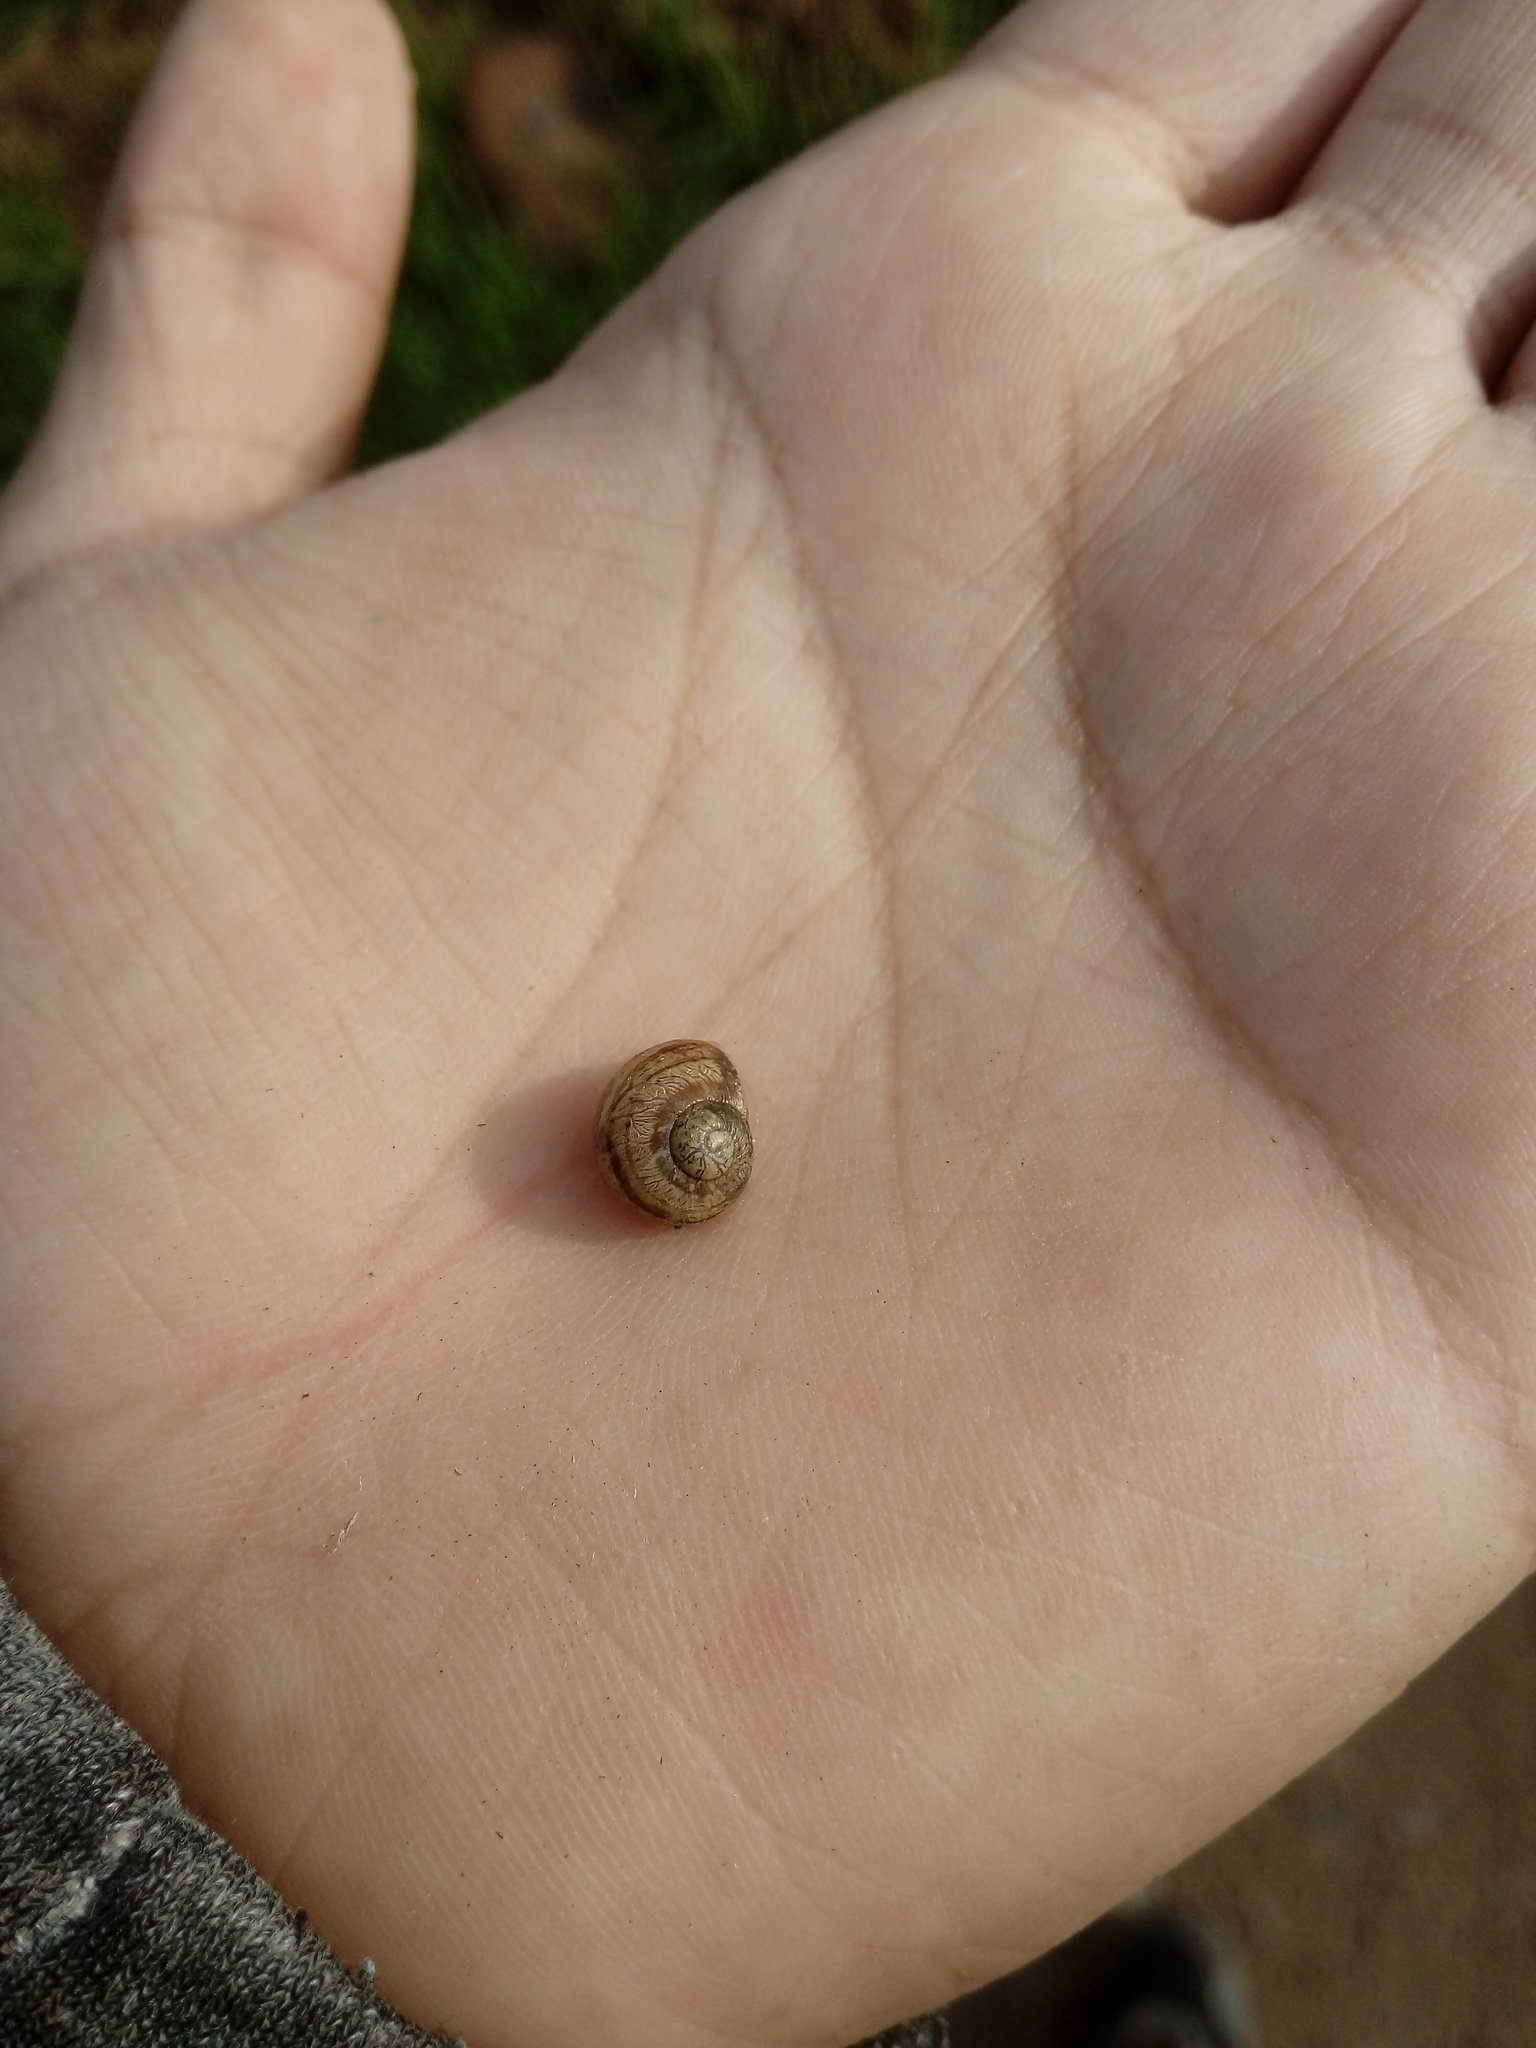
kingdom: Animalia
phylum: Mollusca
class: Gastropoda
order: Stylommatophora
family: Helicidae
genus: Cornu
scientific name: Cornu aspersum
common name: Brown garden snail
